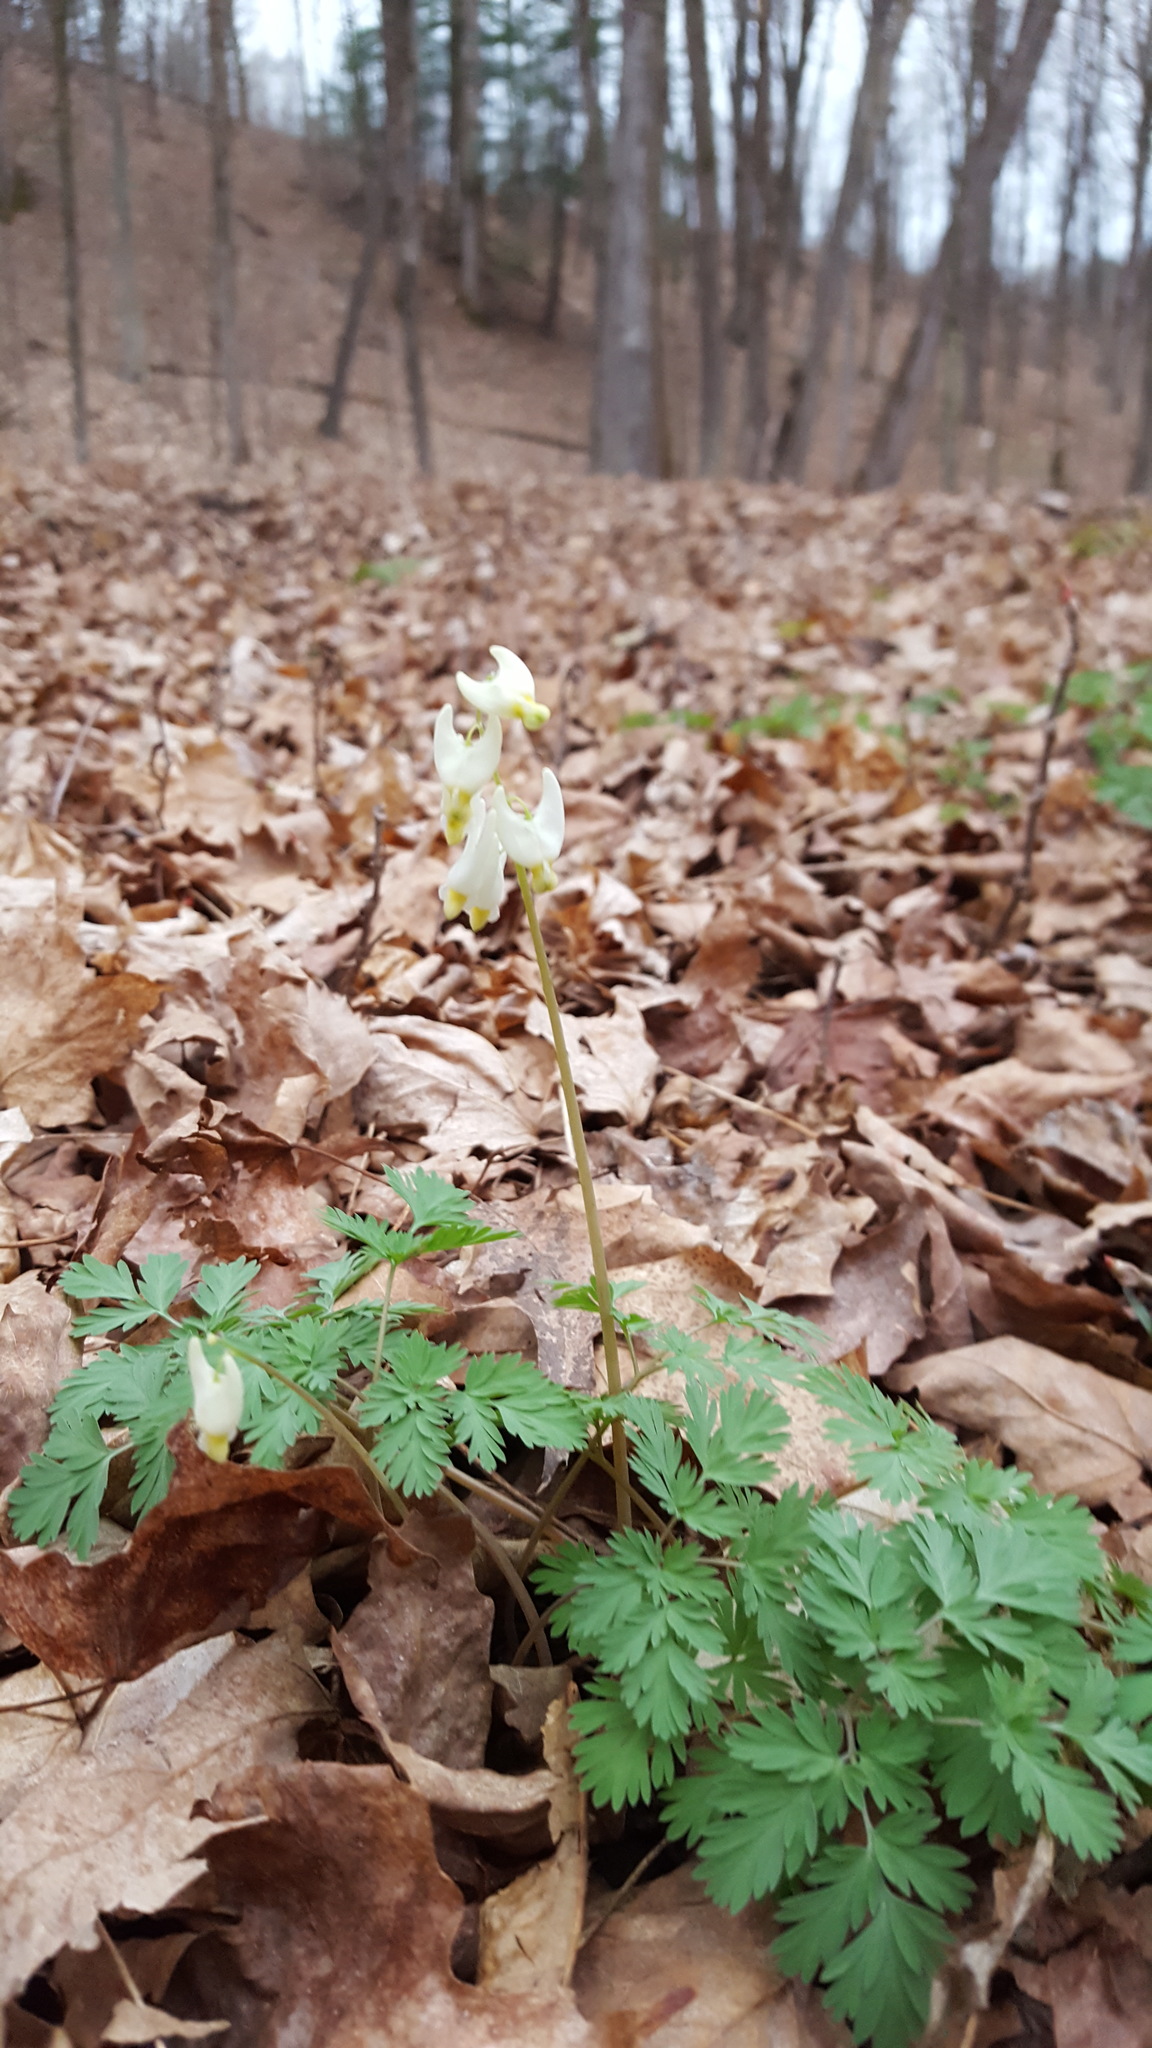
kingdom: Plantae
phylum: Tracheophyta
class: Magnoliopsida
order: Ranunculales
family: Papaveraceae
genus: Dicentra
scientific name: Dicentra cucullaria
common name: Dutchman's breeches
